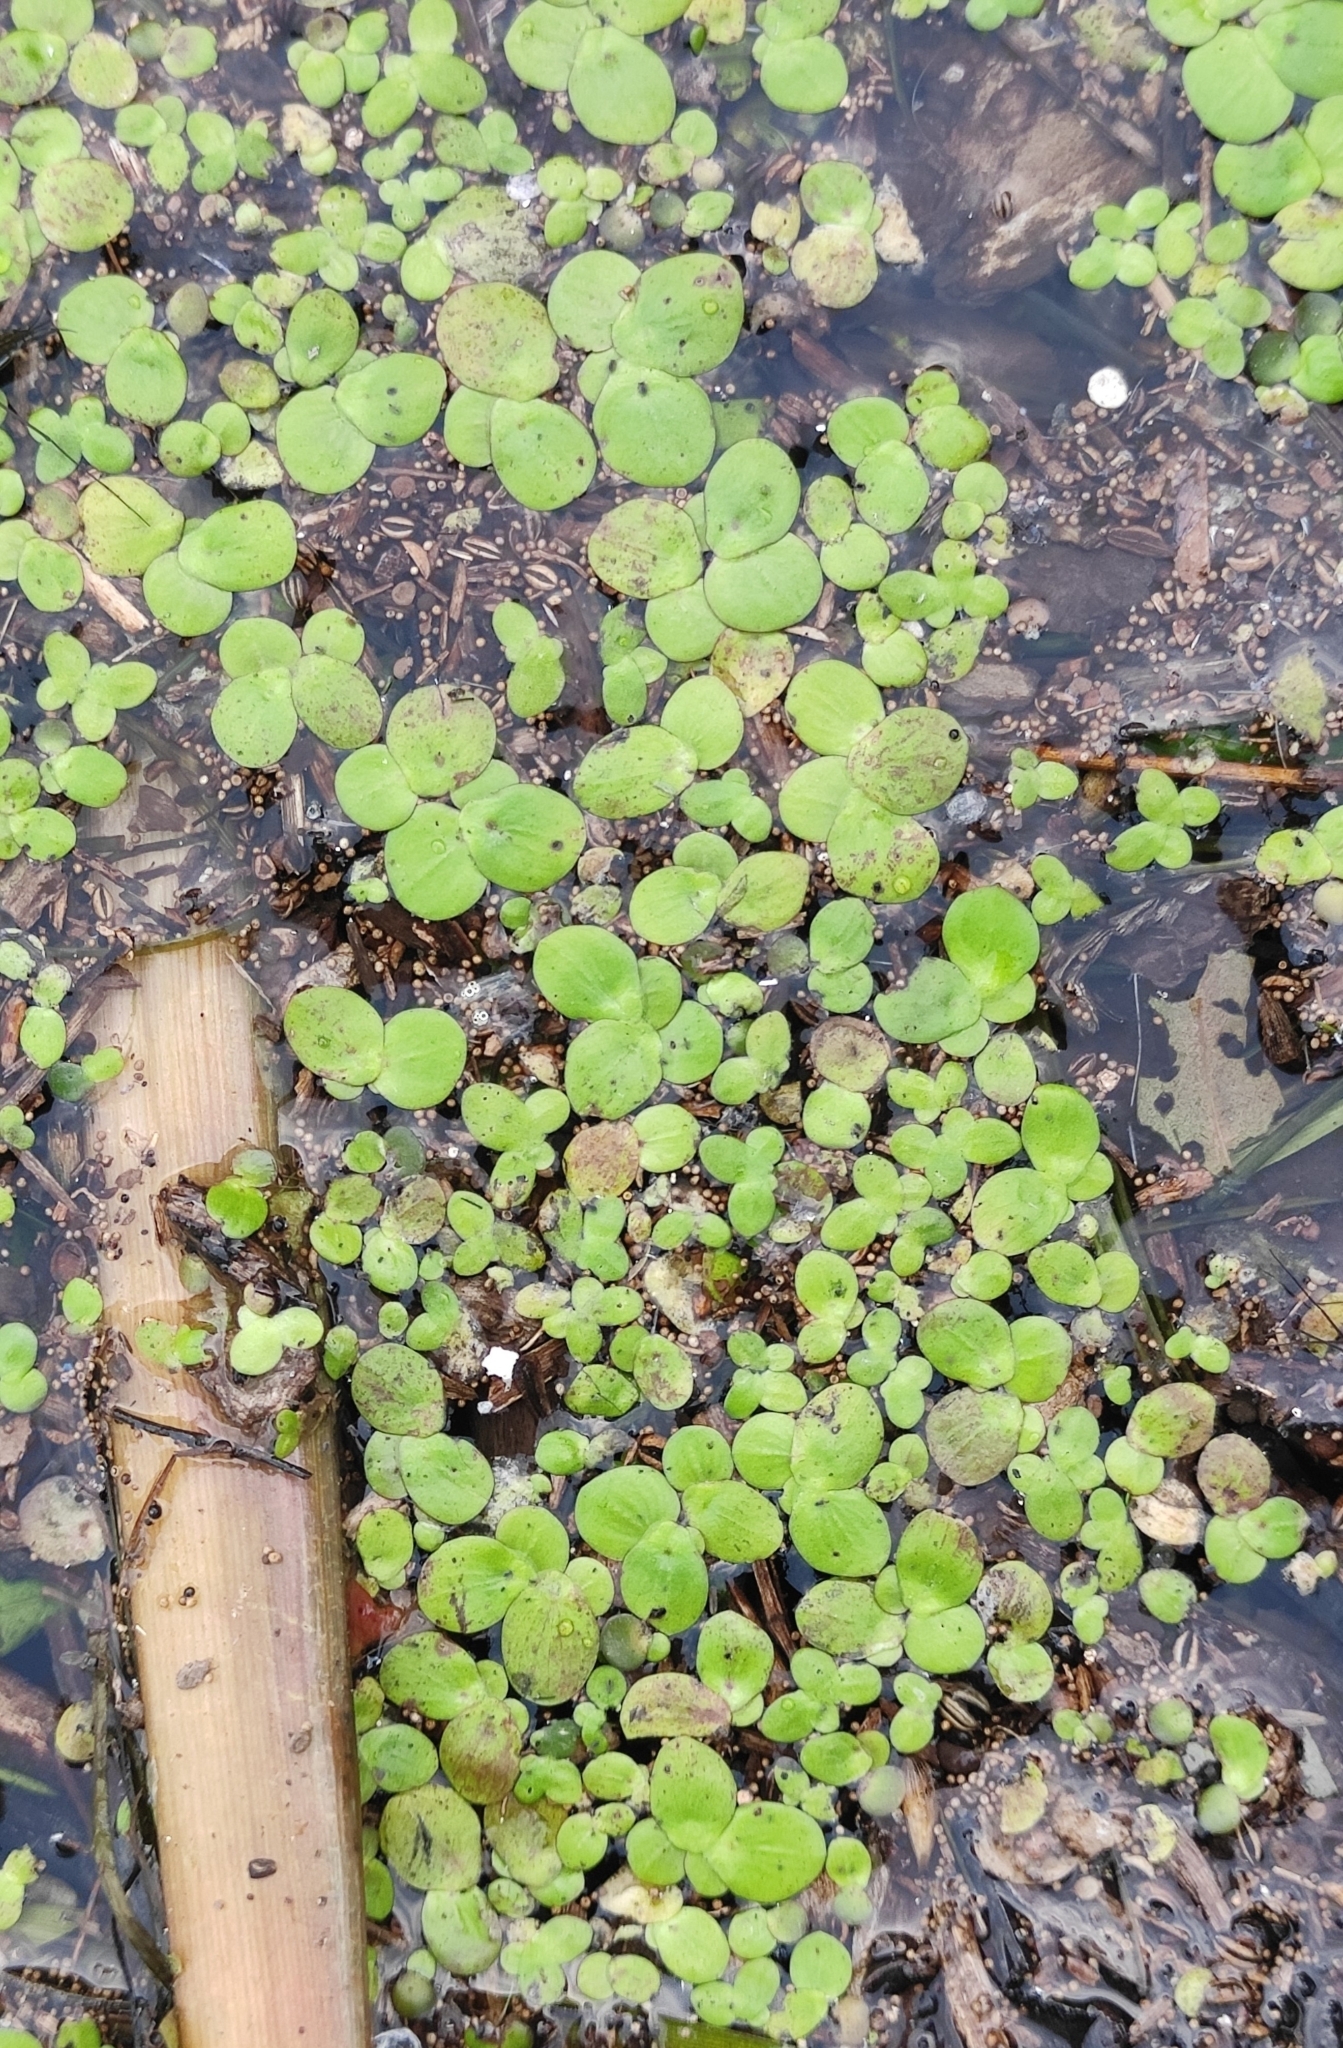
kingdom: Plantae
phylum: Tracheophyta
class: Liliopsida
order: Alismatales
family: Araceae
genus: Spirodela
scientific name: Spirodela polyrhiza
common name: Great duckweed
